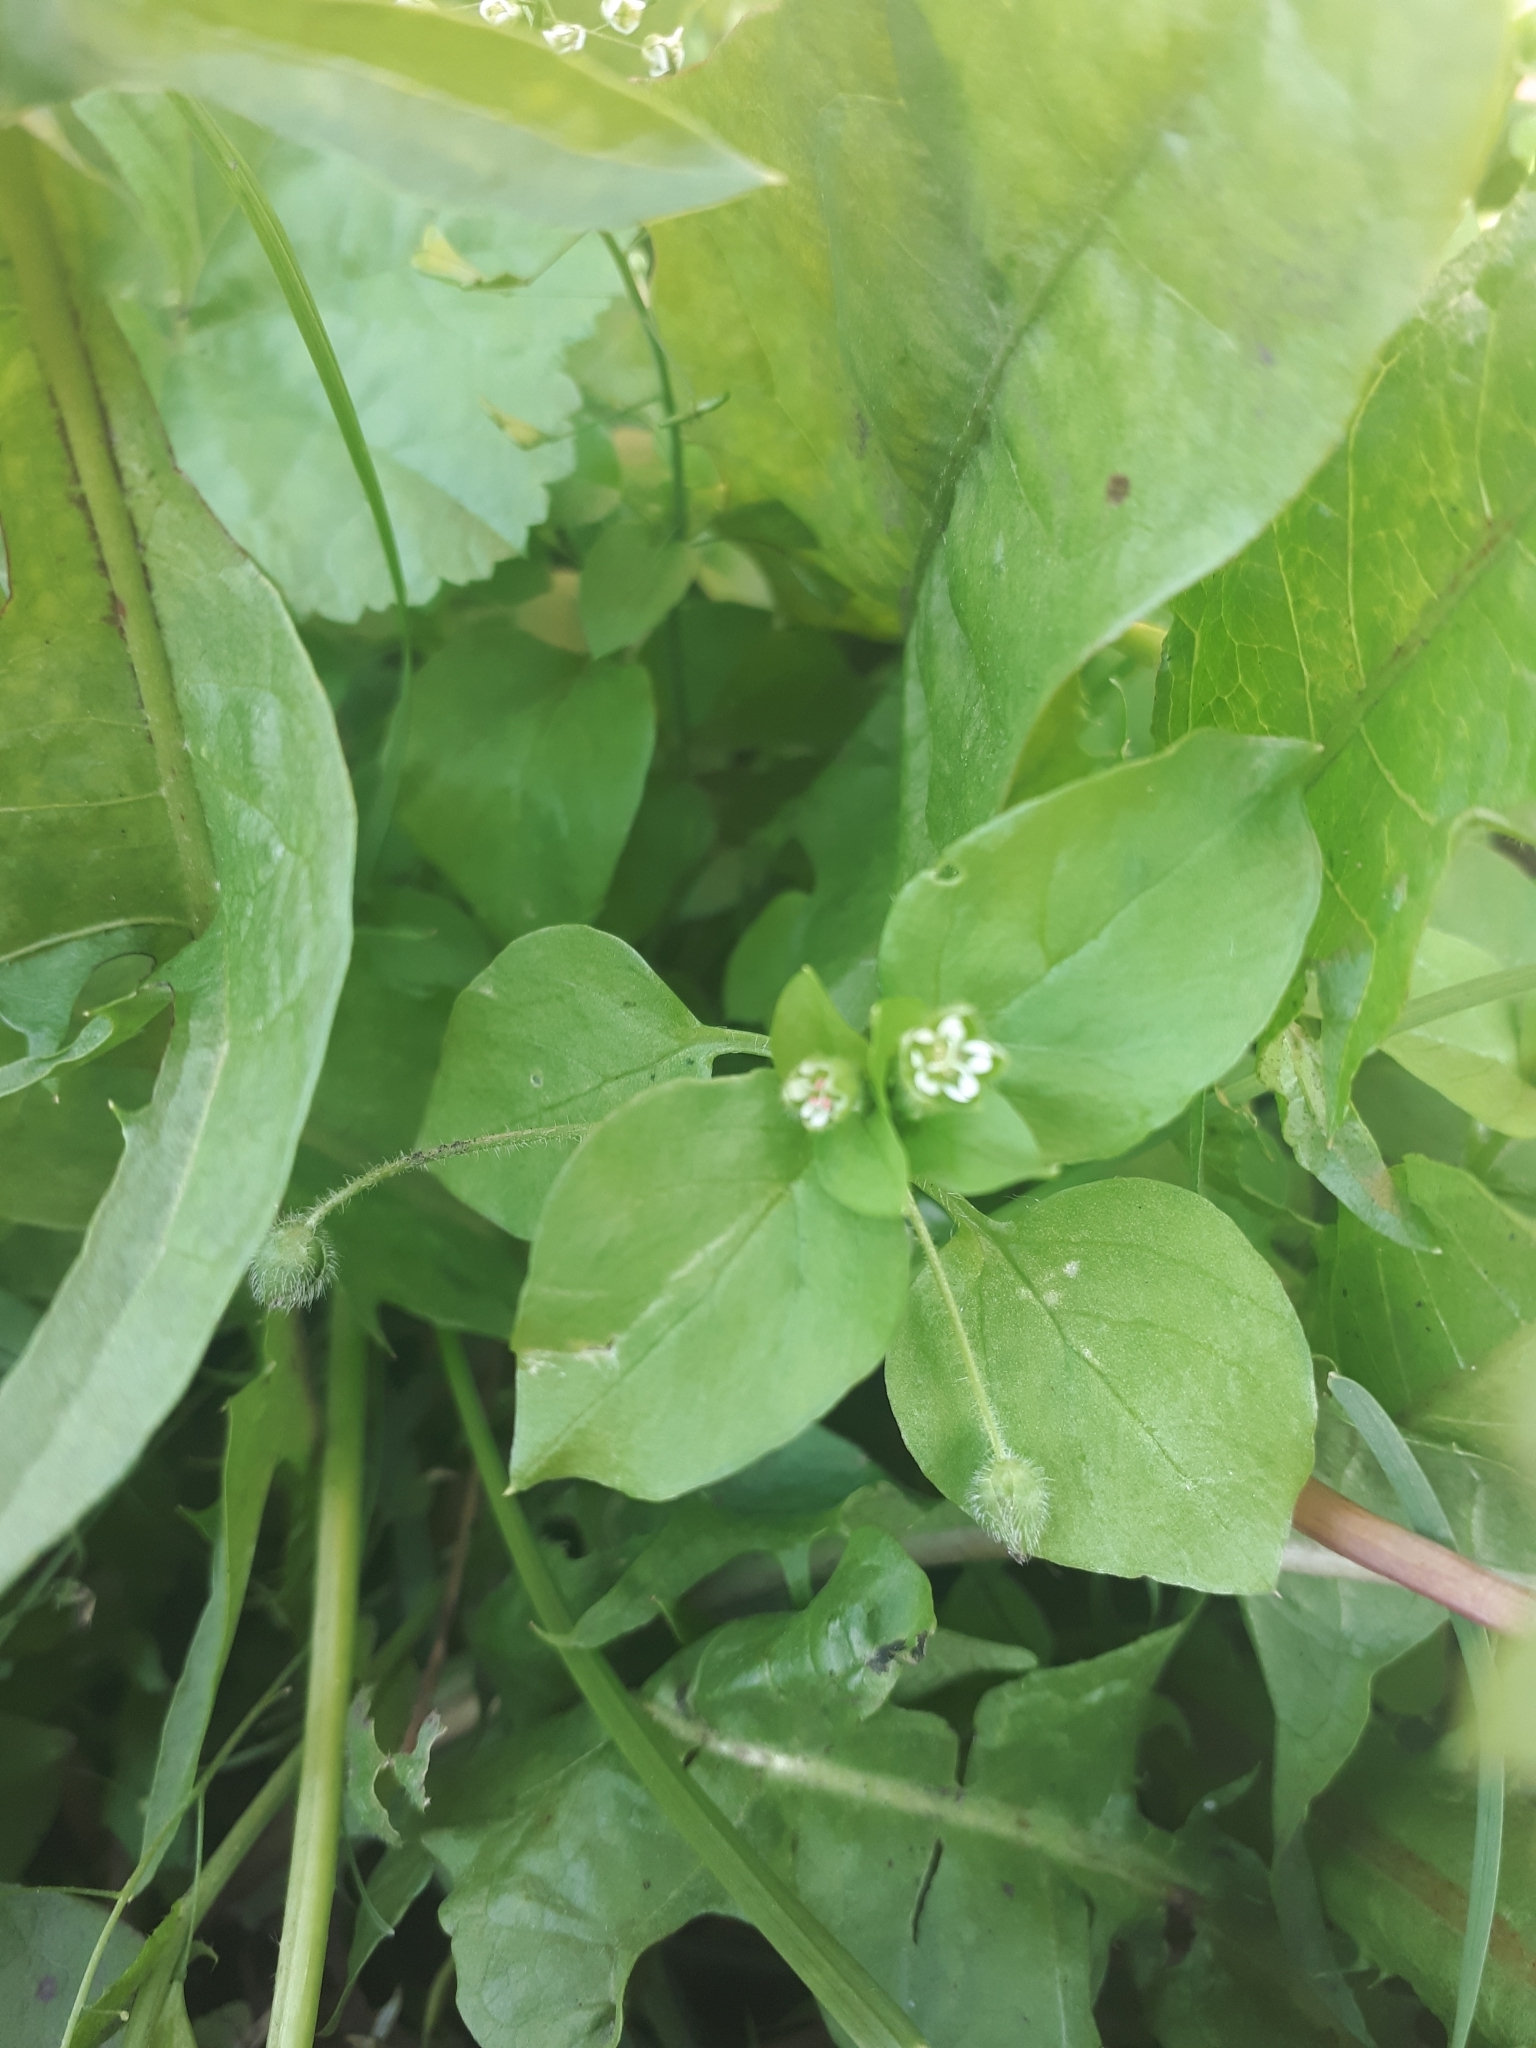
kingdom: Plantae
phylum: Tracheophyta
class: Magnoliopsida
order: Caryophyllales
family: Caryophyllaceae
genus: Stellaria
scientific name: Stellaria media
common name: Common chickweed
